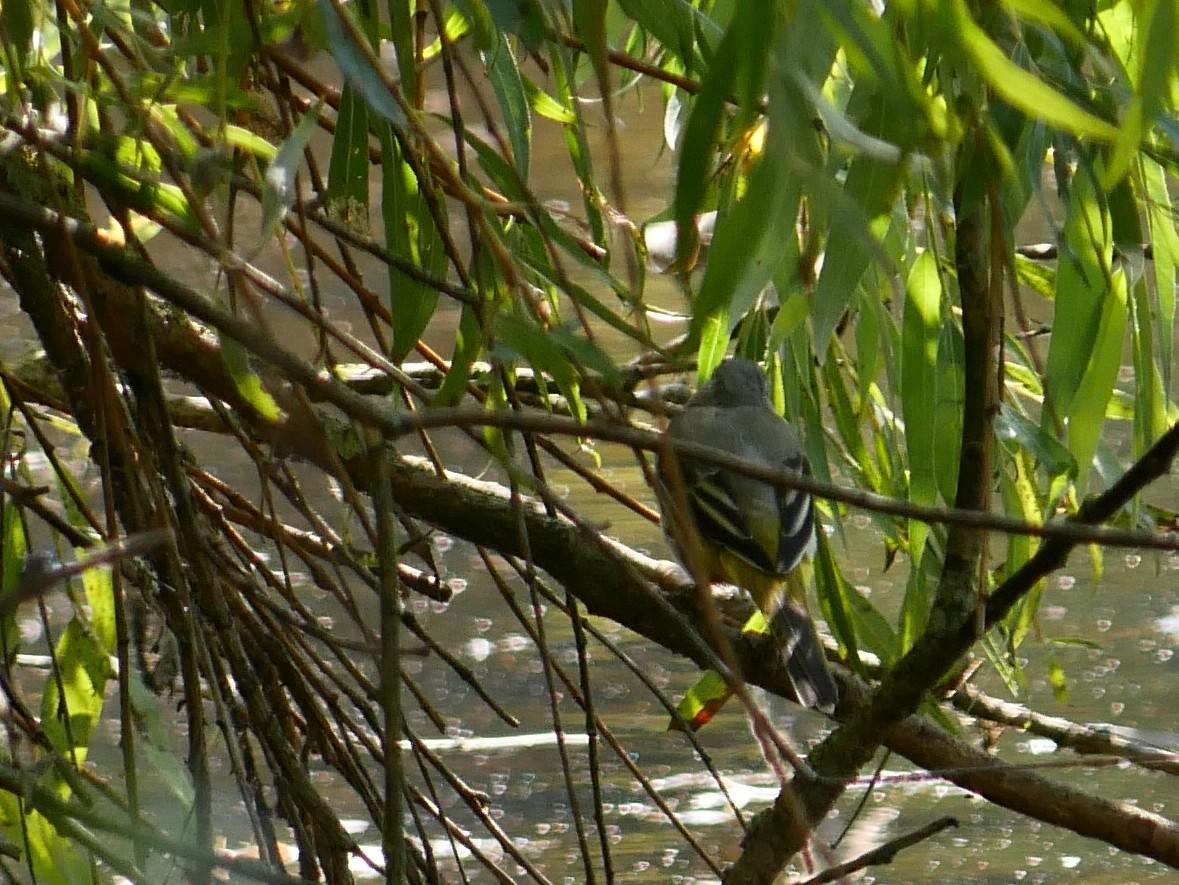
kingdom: Animalia
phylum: Chordata
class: Aves
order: Passeriformes
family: Motacillidae
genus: Motacilla
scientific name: Motacilla cinerea
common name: Grey wagtail
